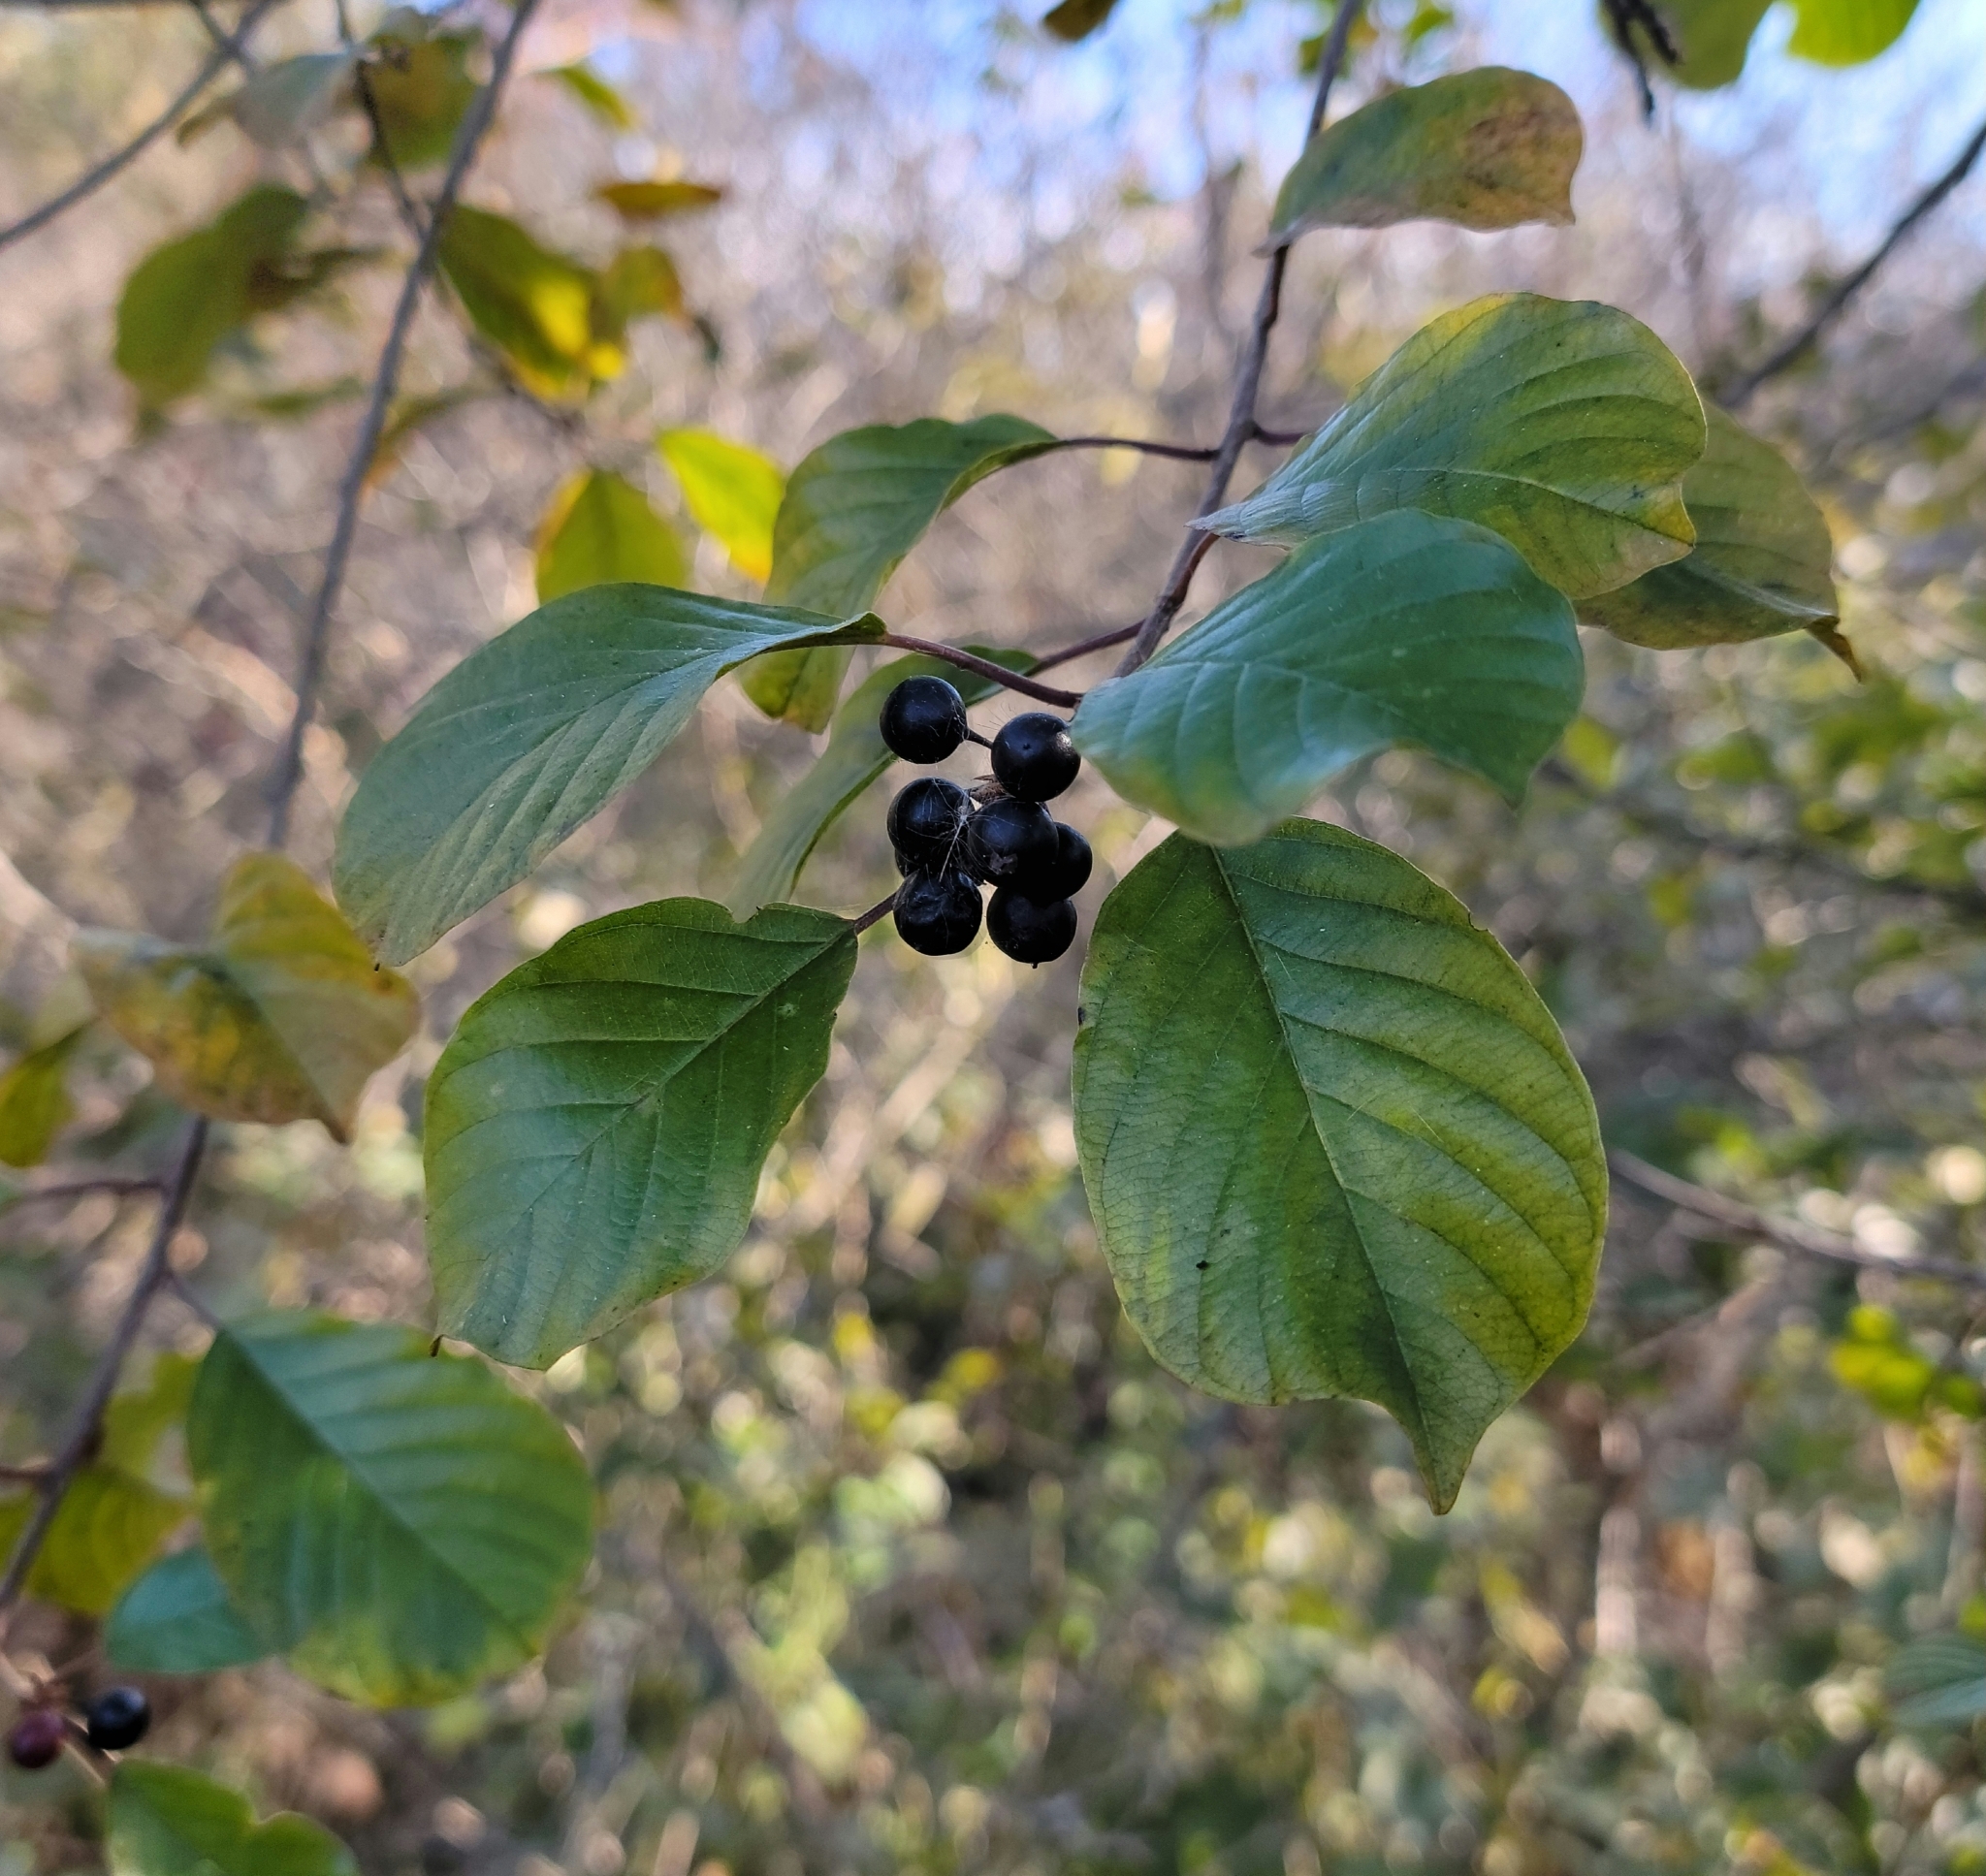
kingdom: Plantae
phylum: Tracheophyta
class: Magnoliopsida
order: Rosales
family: Rhamnaceae
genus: Frangula
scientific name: Frangula alnus
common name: Alder buckthorn
